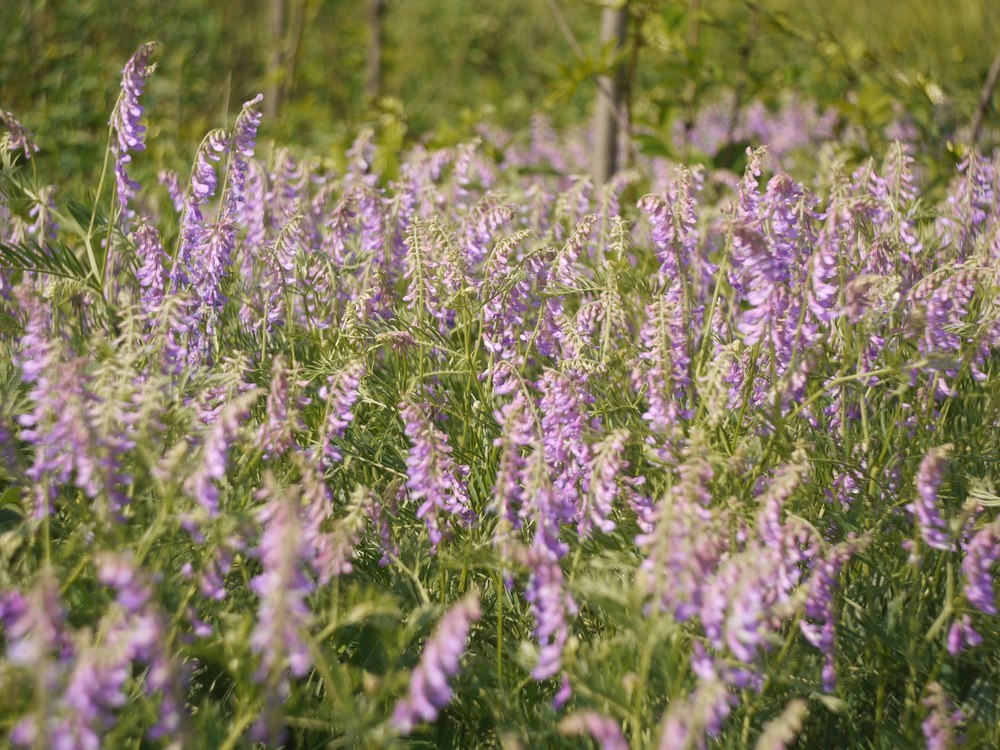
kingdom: Plantae
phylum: Tracheophyta
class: Magnoliopsida
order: Fabales
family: Fabaceae
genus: Vicia
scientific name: Vicia tenuifolia
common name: Fine-leaved vetch
